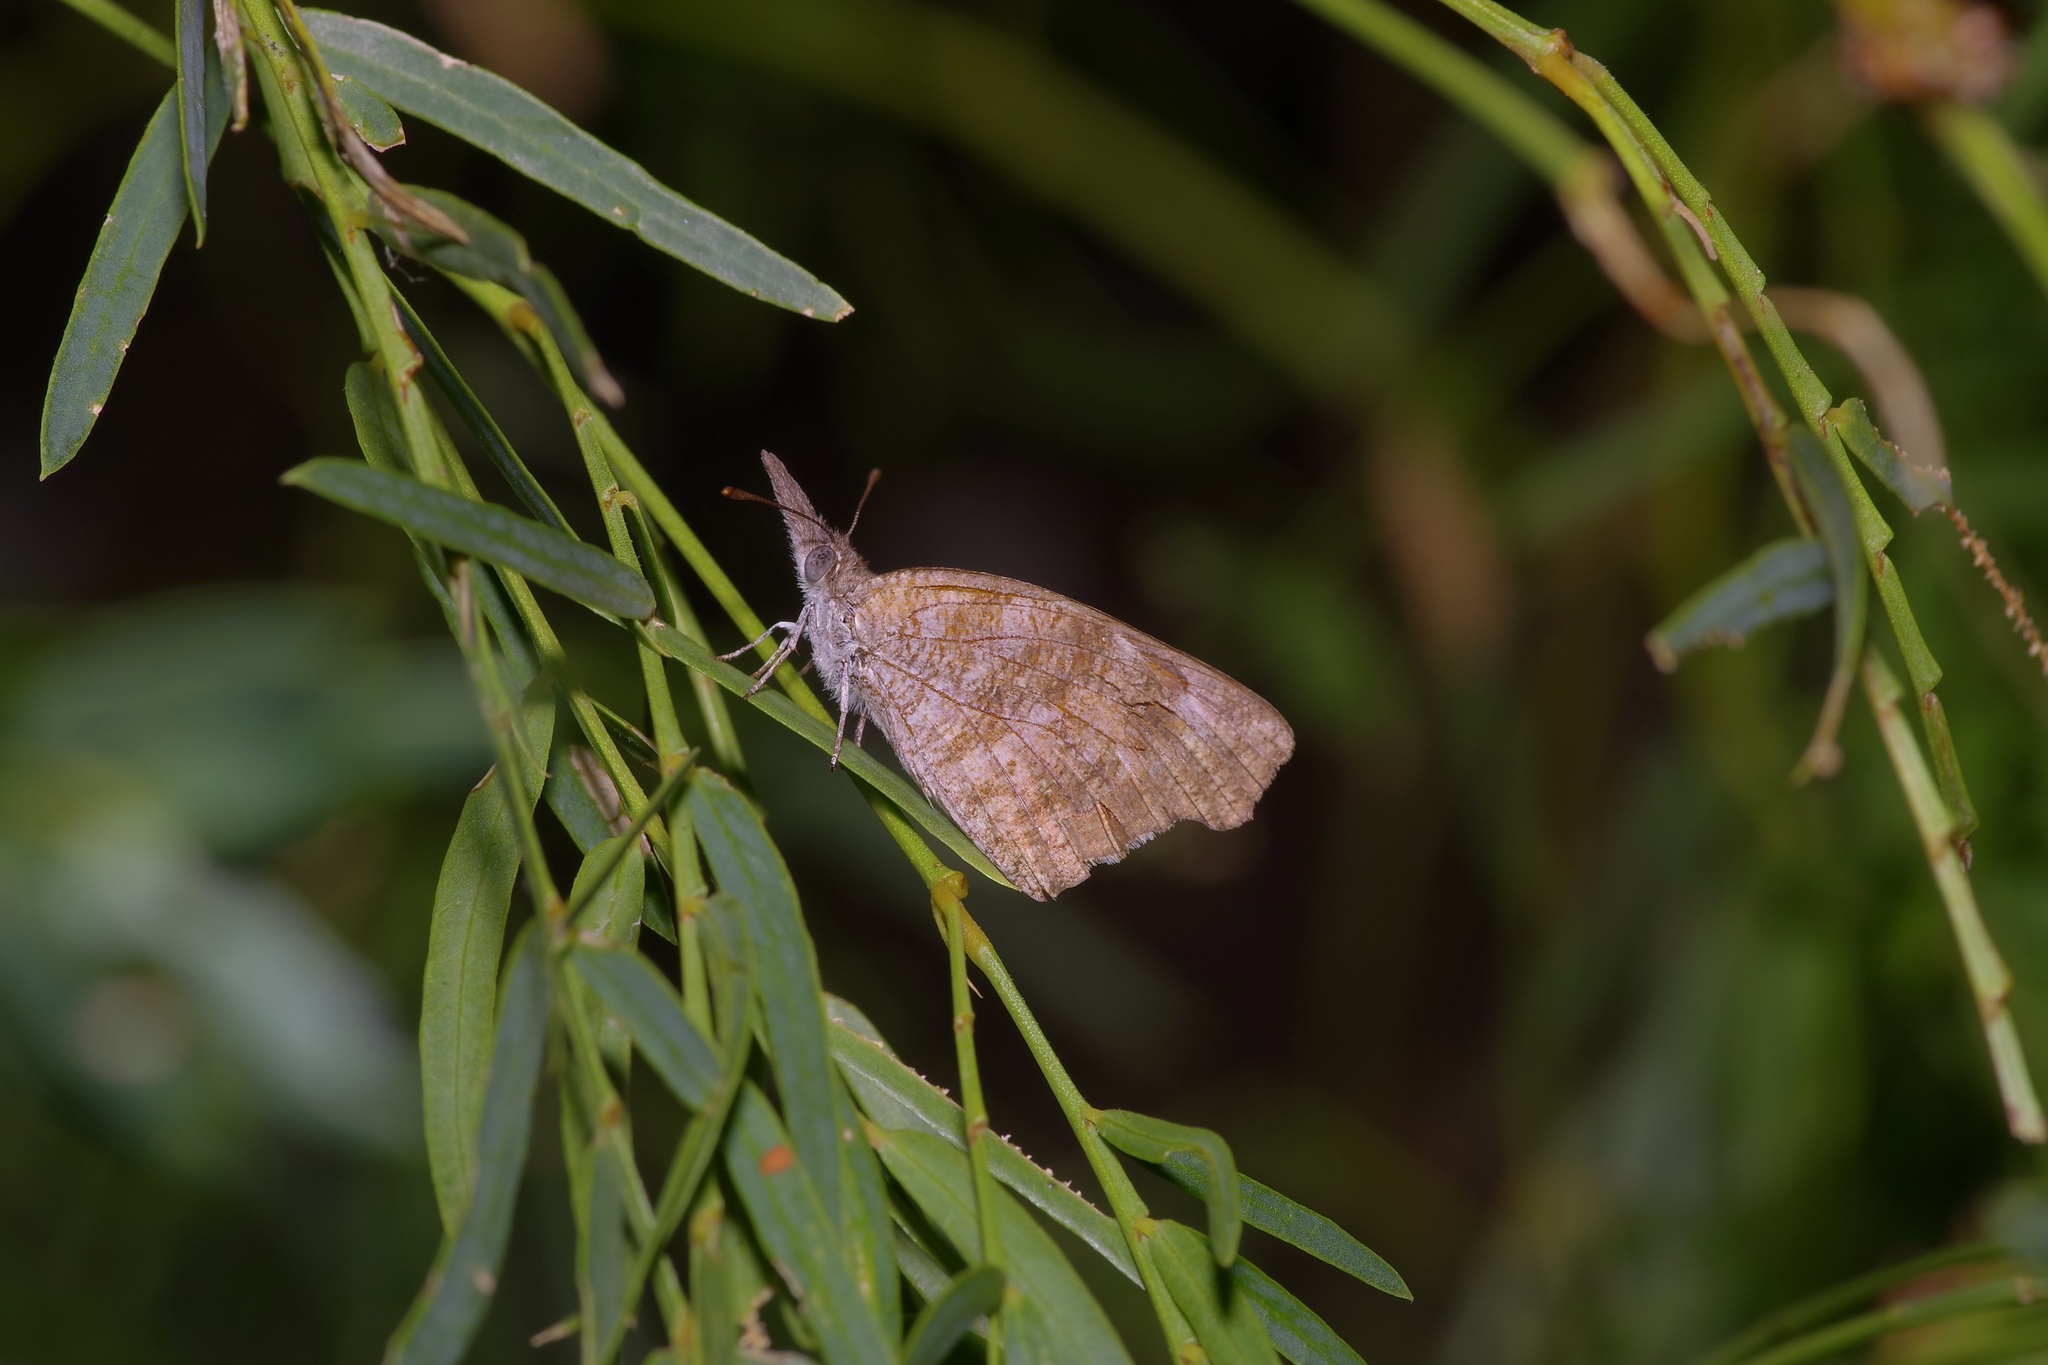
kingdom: Animalia
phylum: Arthropoda
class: Insecta
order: Lepidoptera
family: Nymphalidae
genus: Libytheana
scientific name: Libytheana carinenta
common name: American snout
